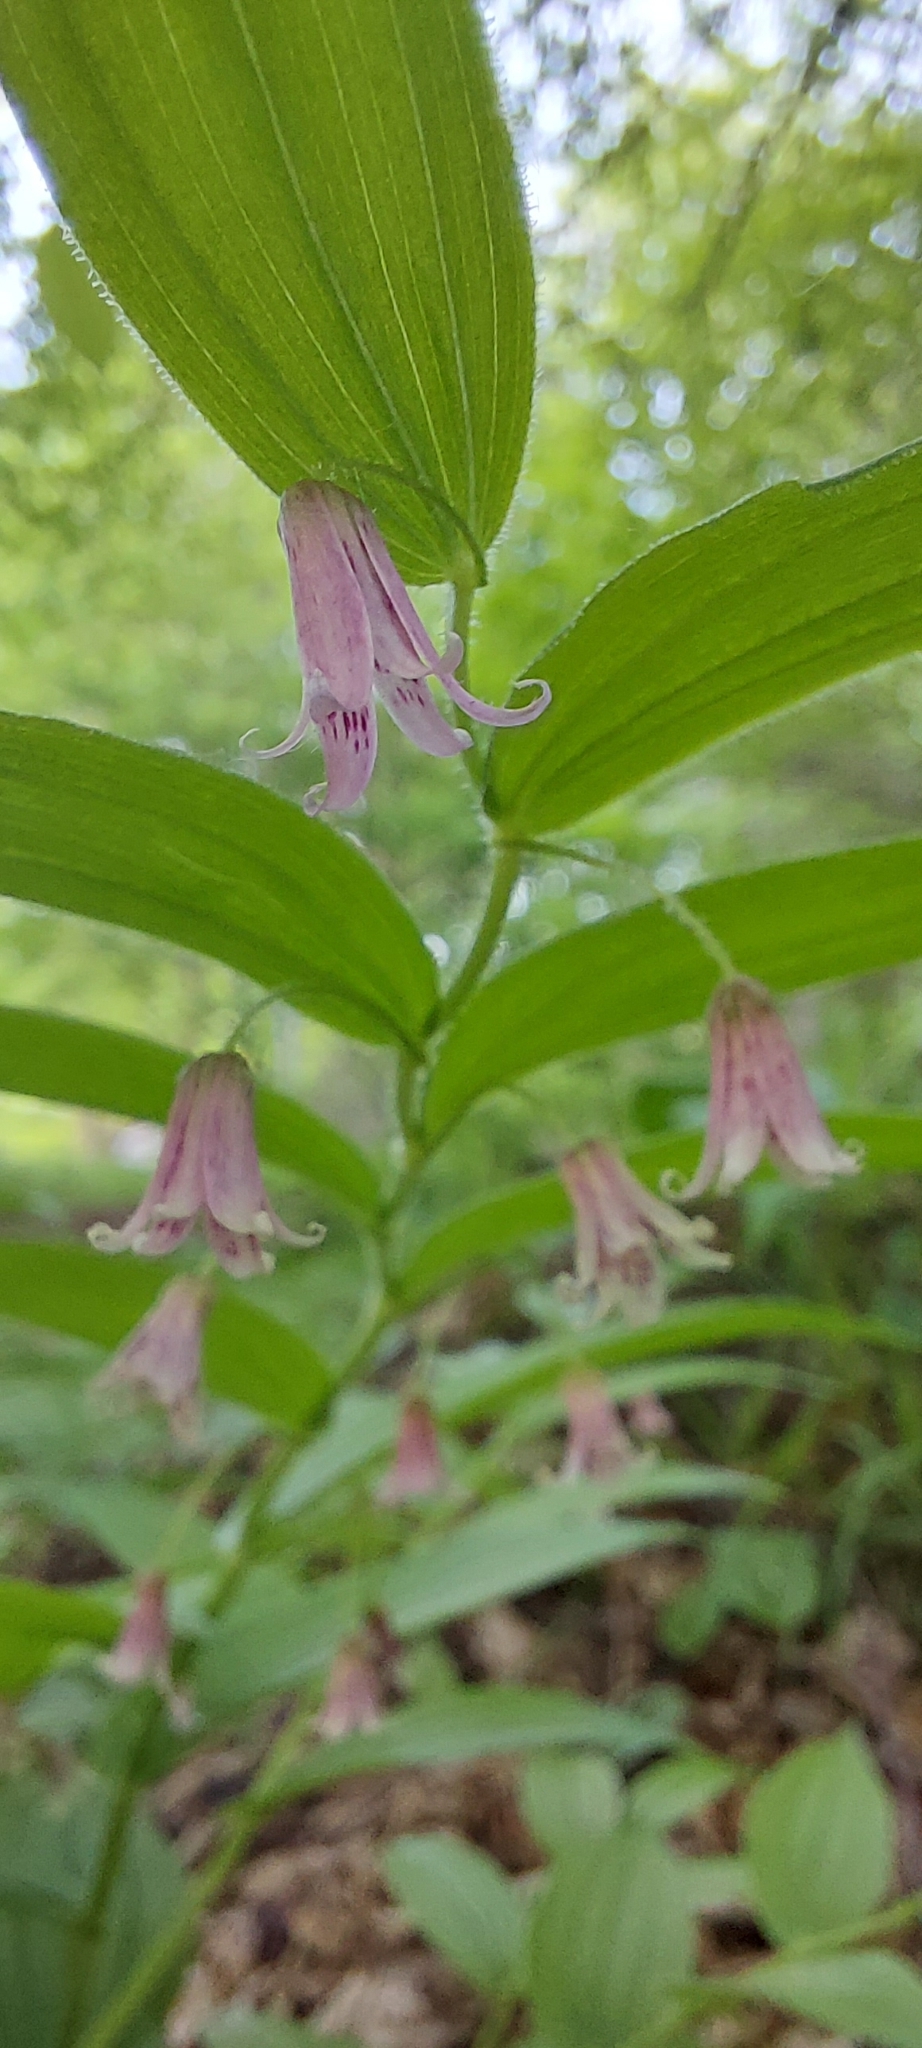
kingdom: Plantae
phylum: Tracheophyta
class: Liliopsida
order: Liliales
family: Liliaceae
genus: Streptopus
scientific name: Streptopus lanceolatus
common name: Rose mandarin
